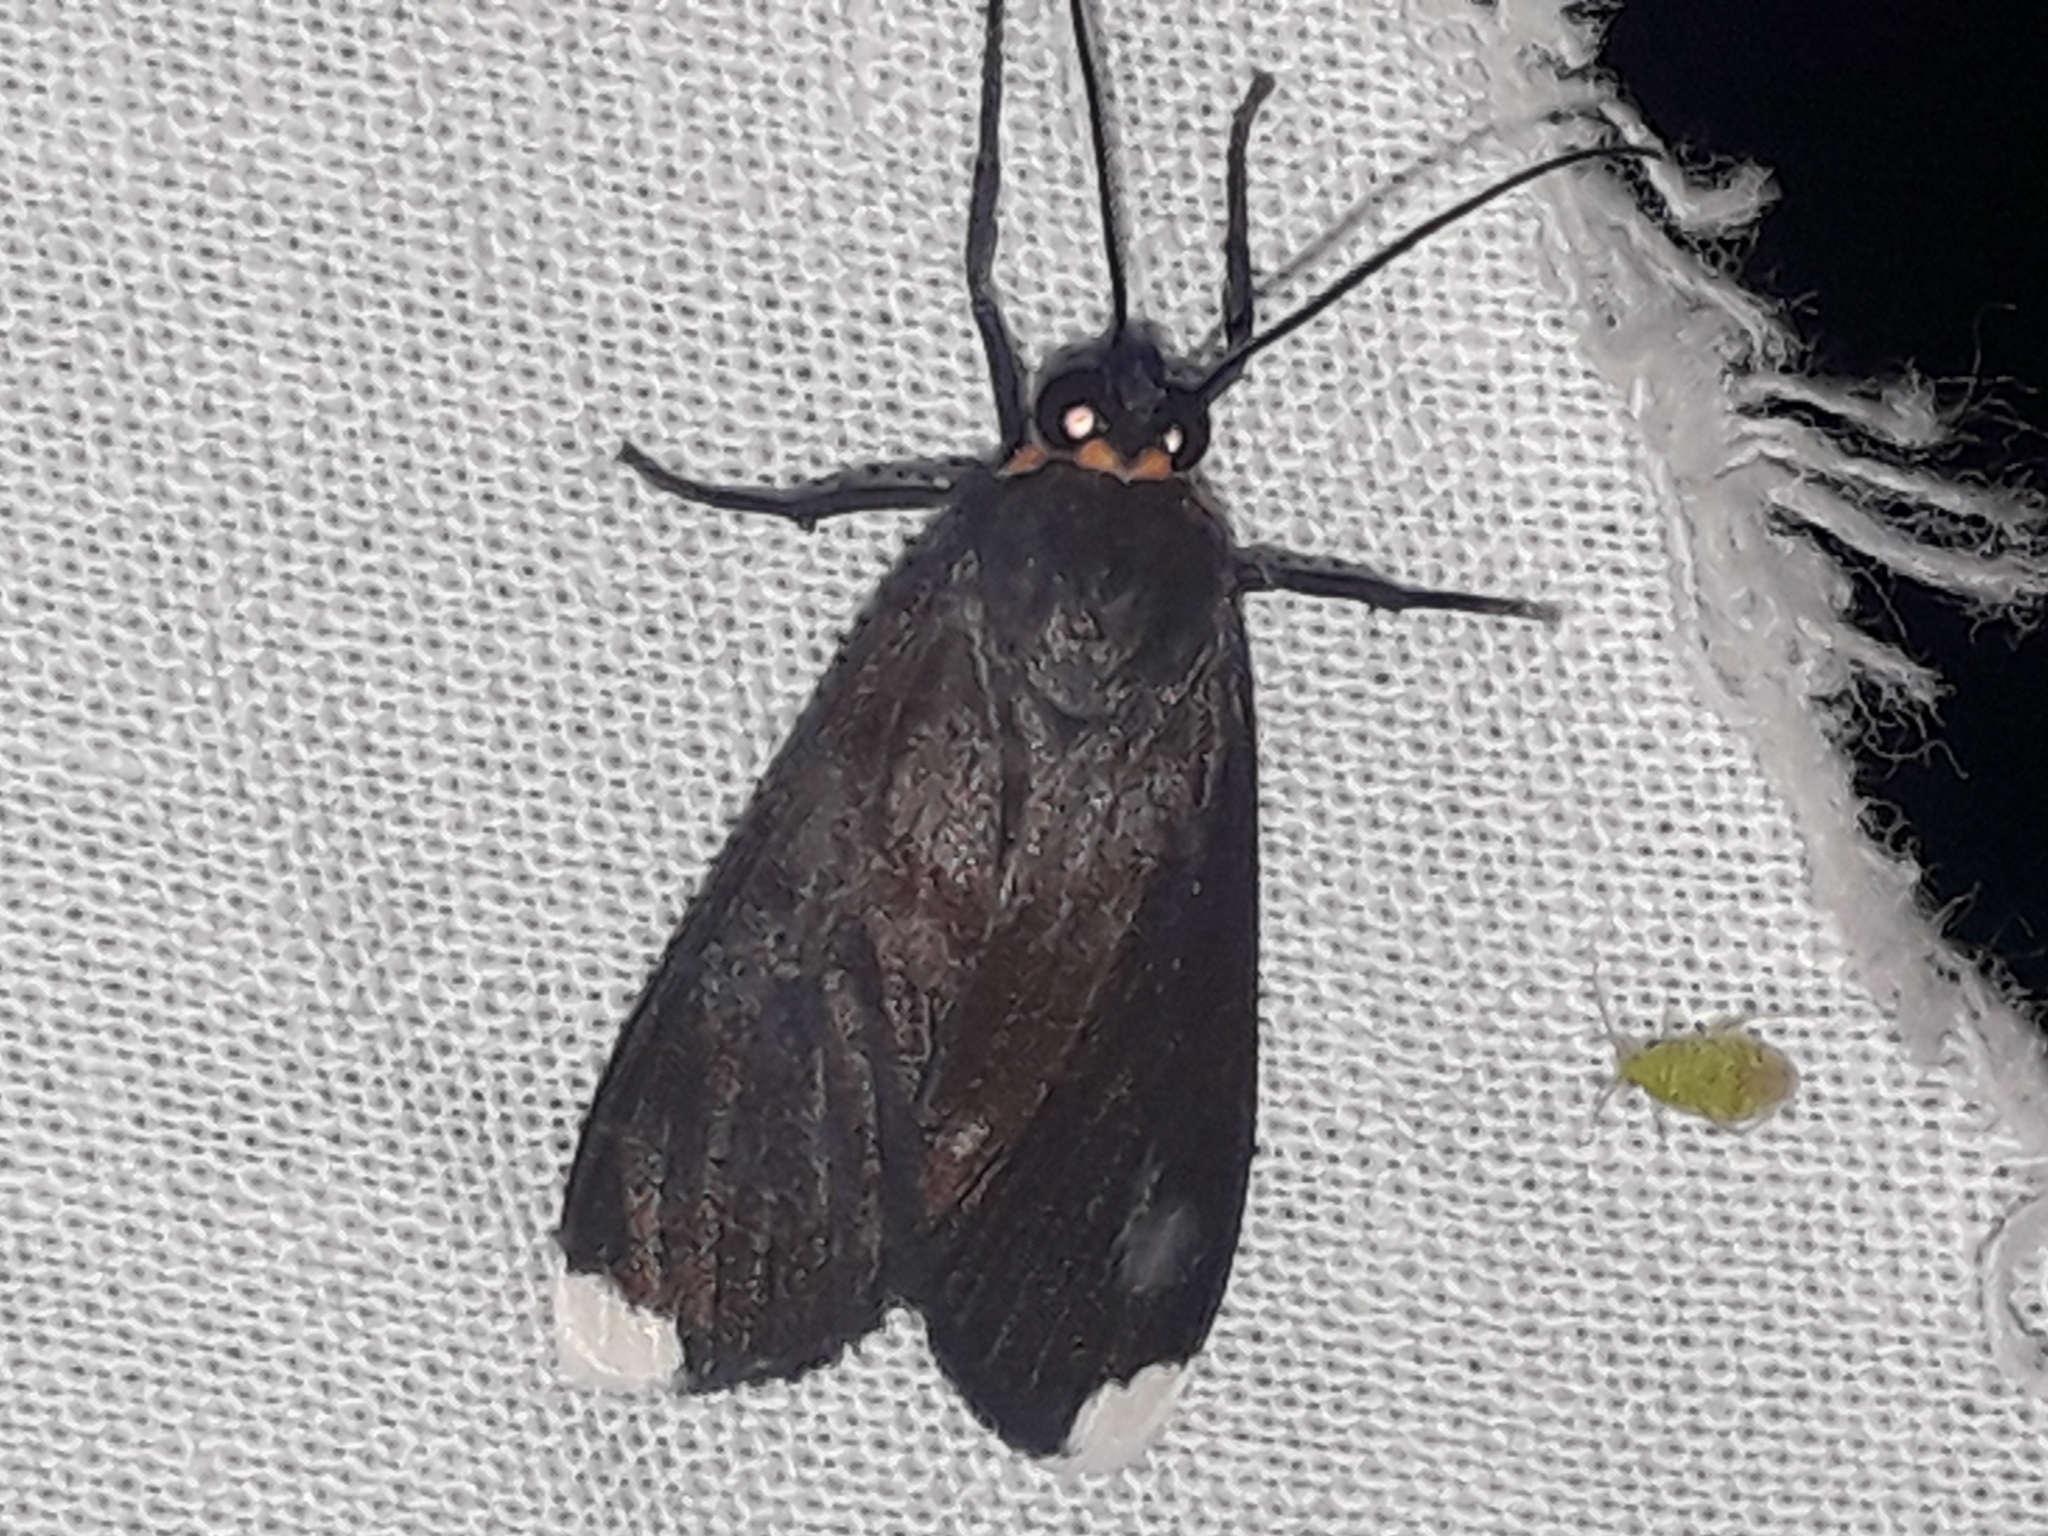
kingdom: Animalia
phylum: Arthropoda
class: Insecta
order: Lepidoptera
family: Erebidae
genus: Episcepsis
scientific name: Episcepsis dominicensis
